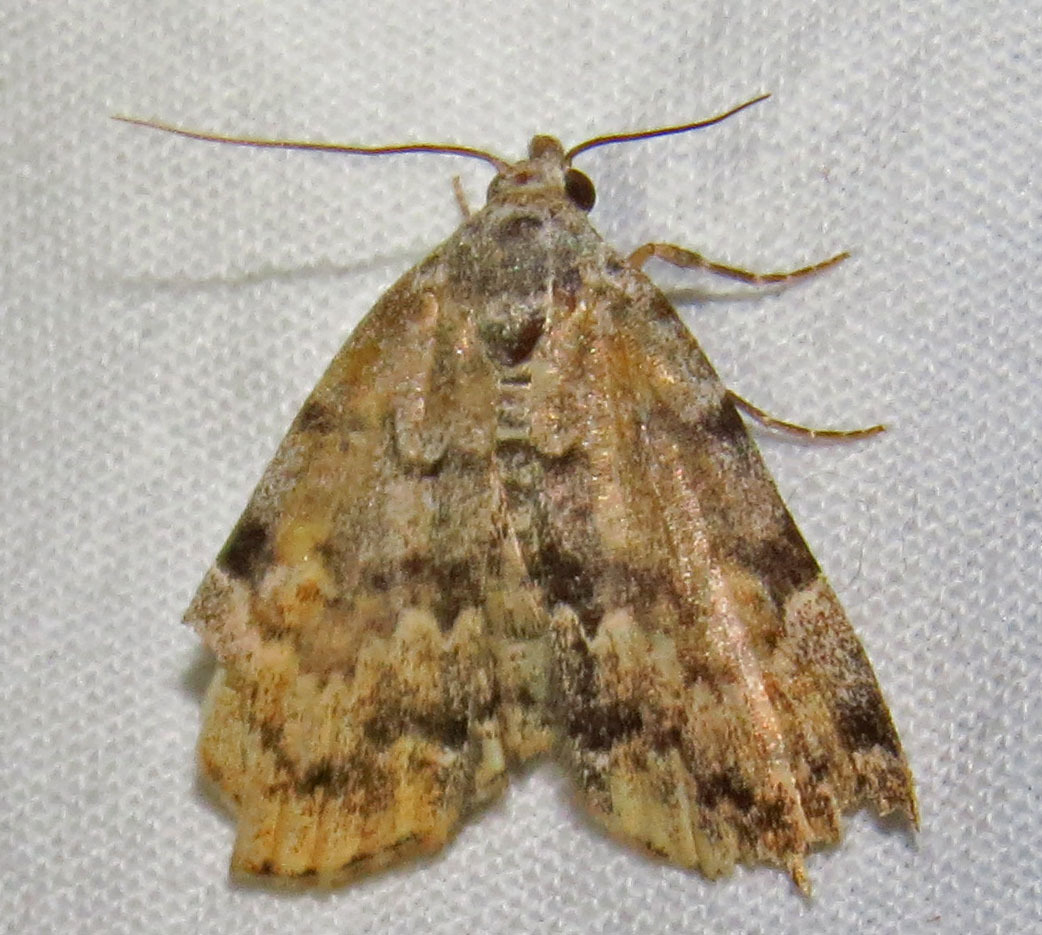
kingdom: Animalia
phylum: Arthropoda
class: Insecta
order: Lepidoptera
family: Erebidae
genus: Idia
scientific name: Idia americalis
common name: American idia moth
